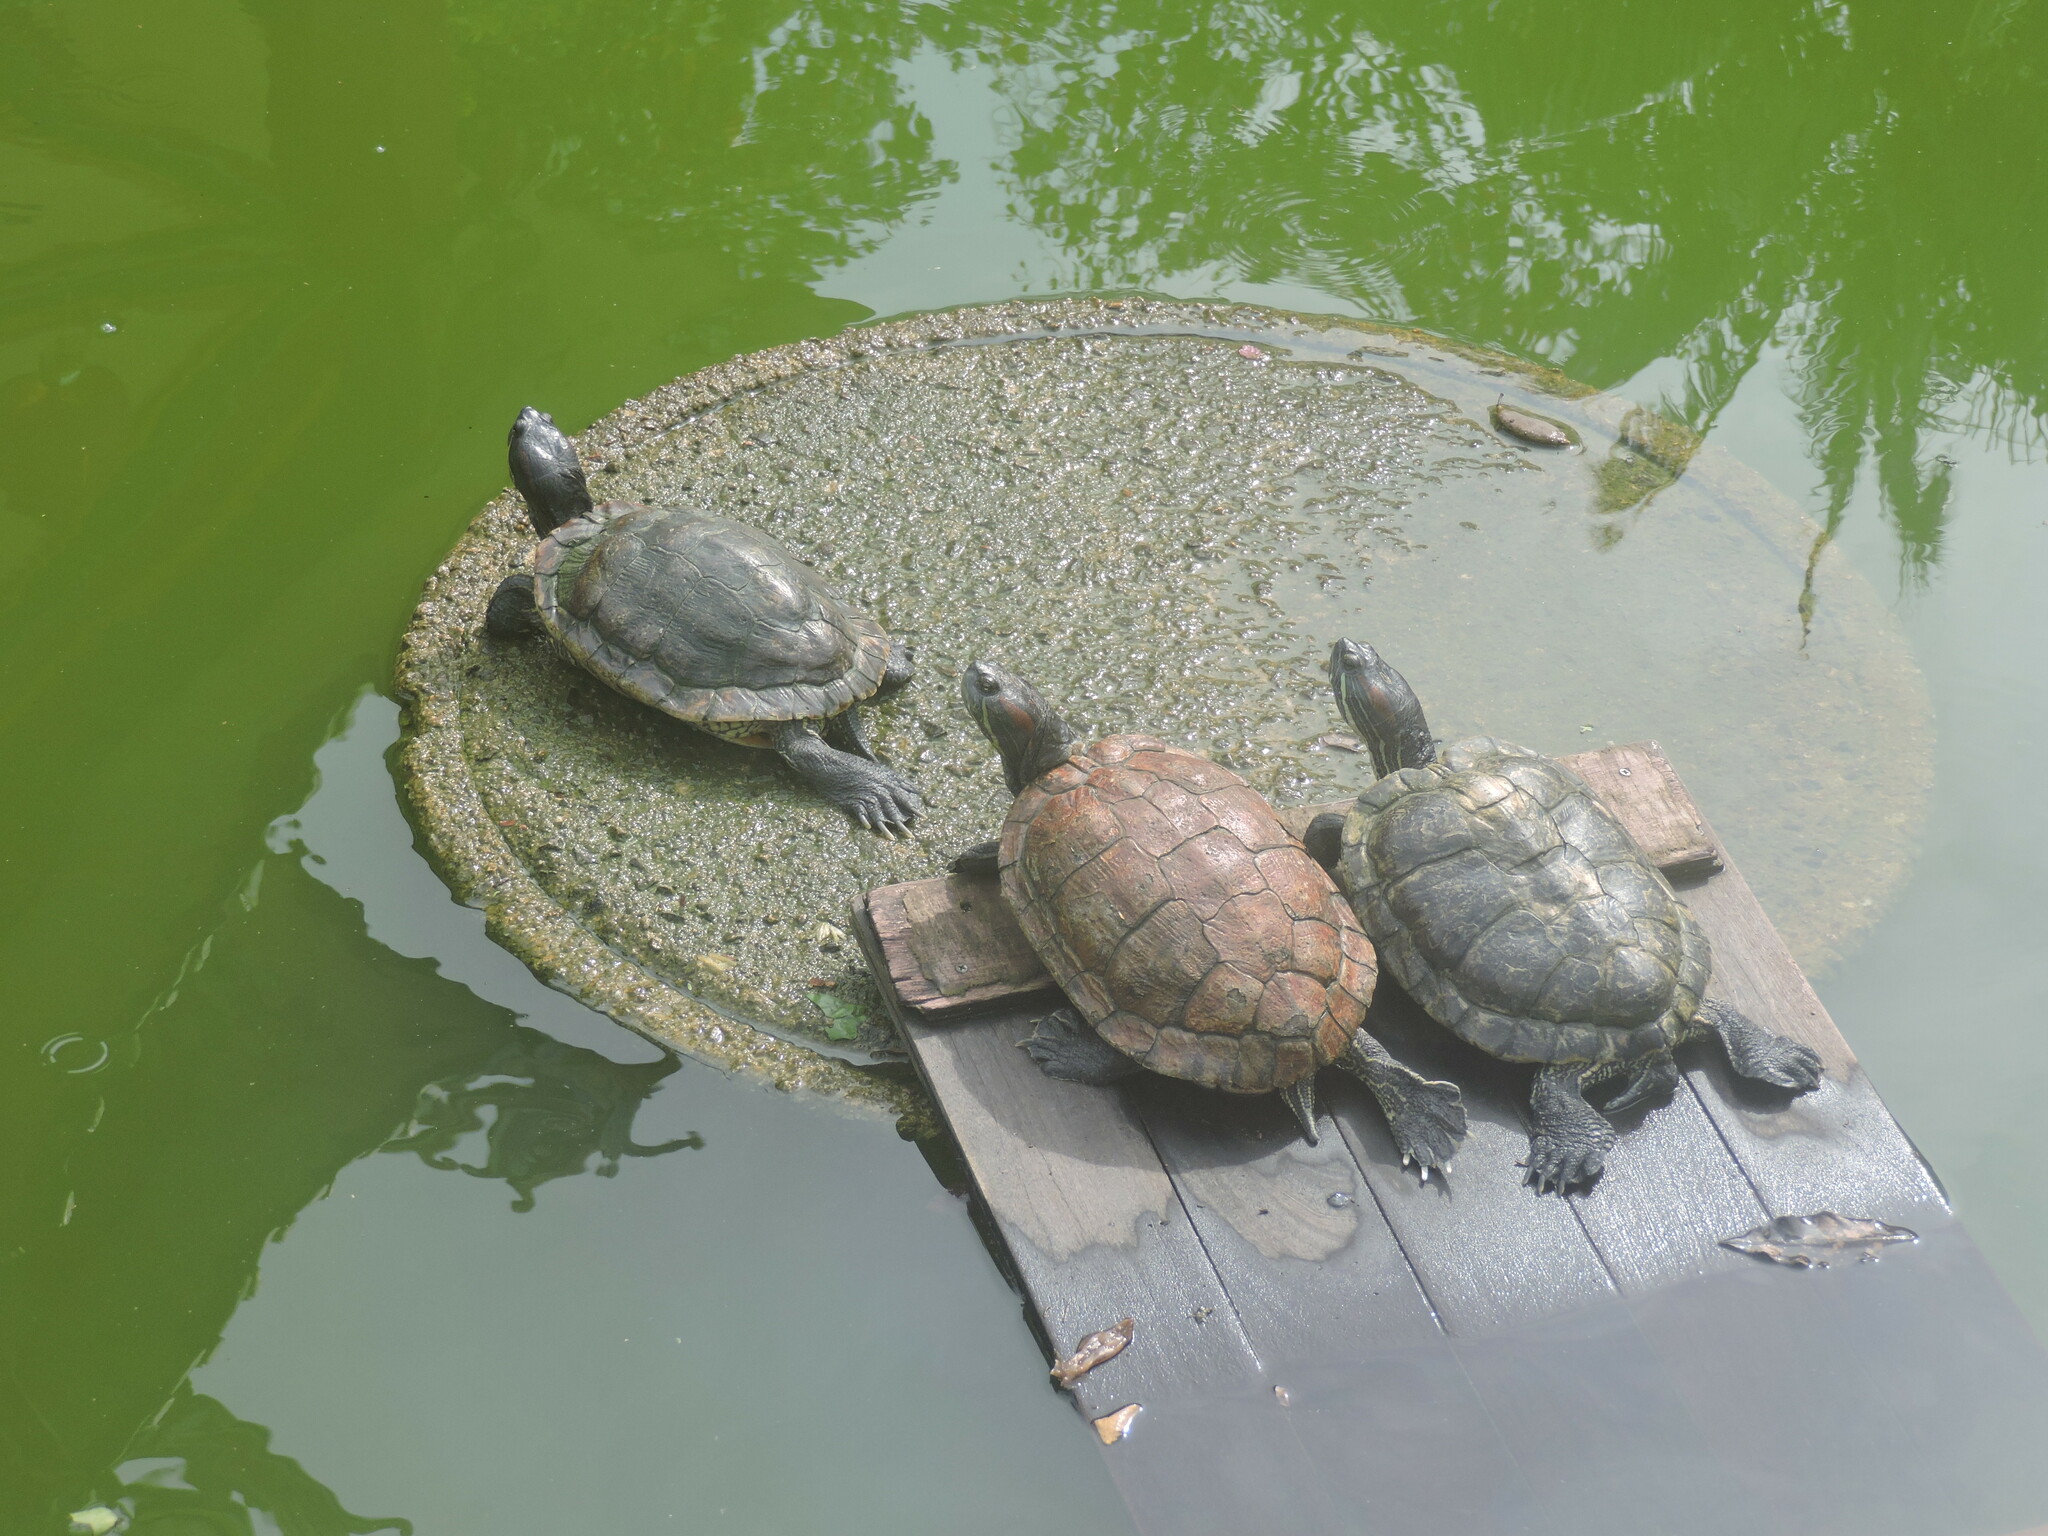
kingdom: Animalia
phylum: Chordata
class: Testudines
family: Emydidae
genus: Trachemys
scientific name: Trachemys scripta
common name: Slider
